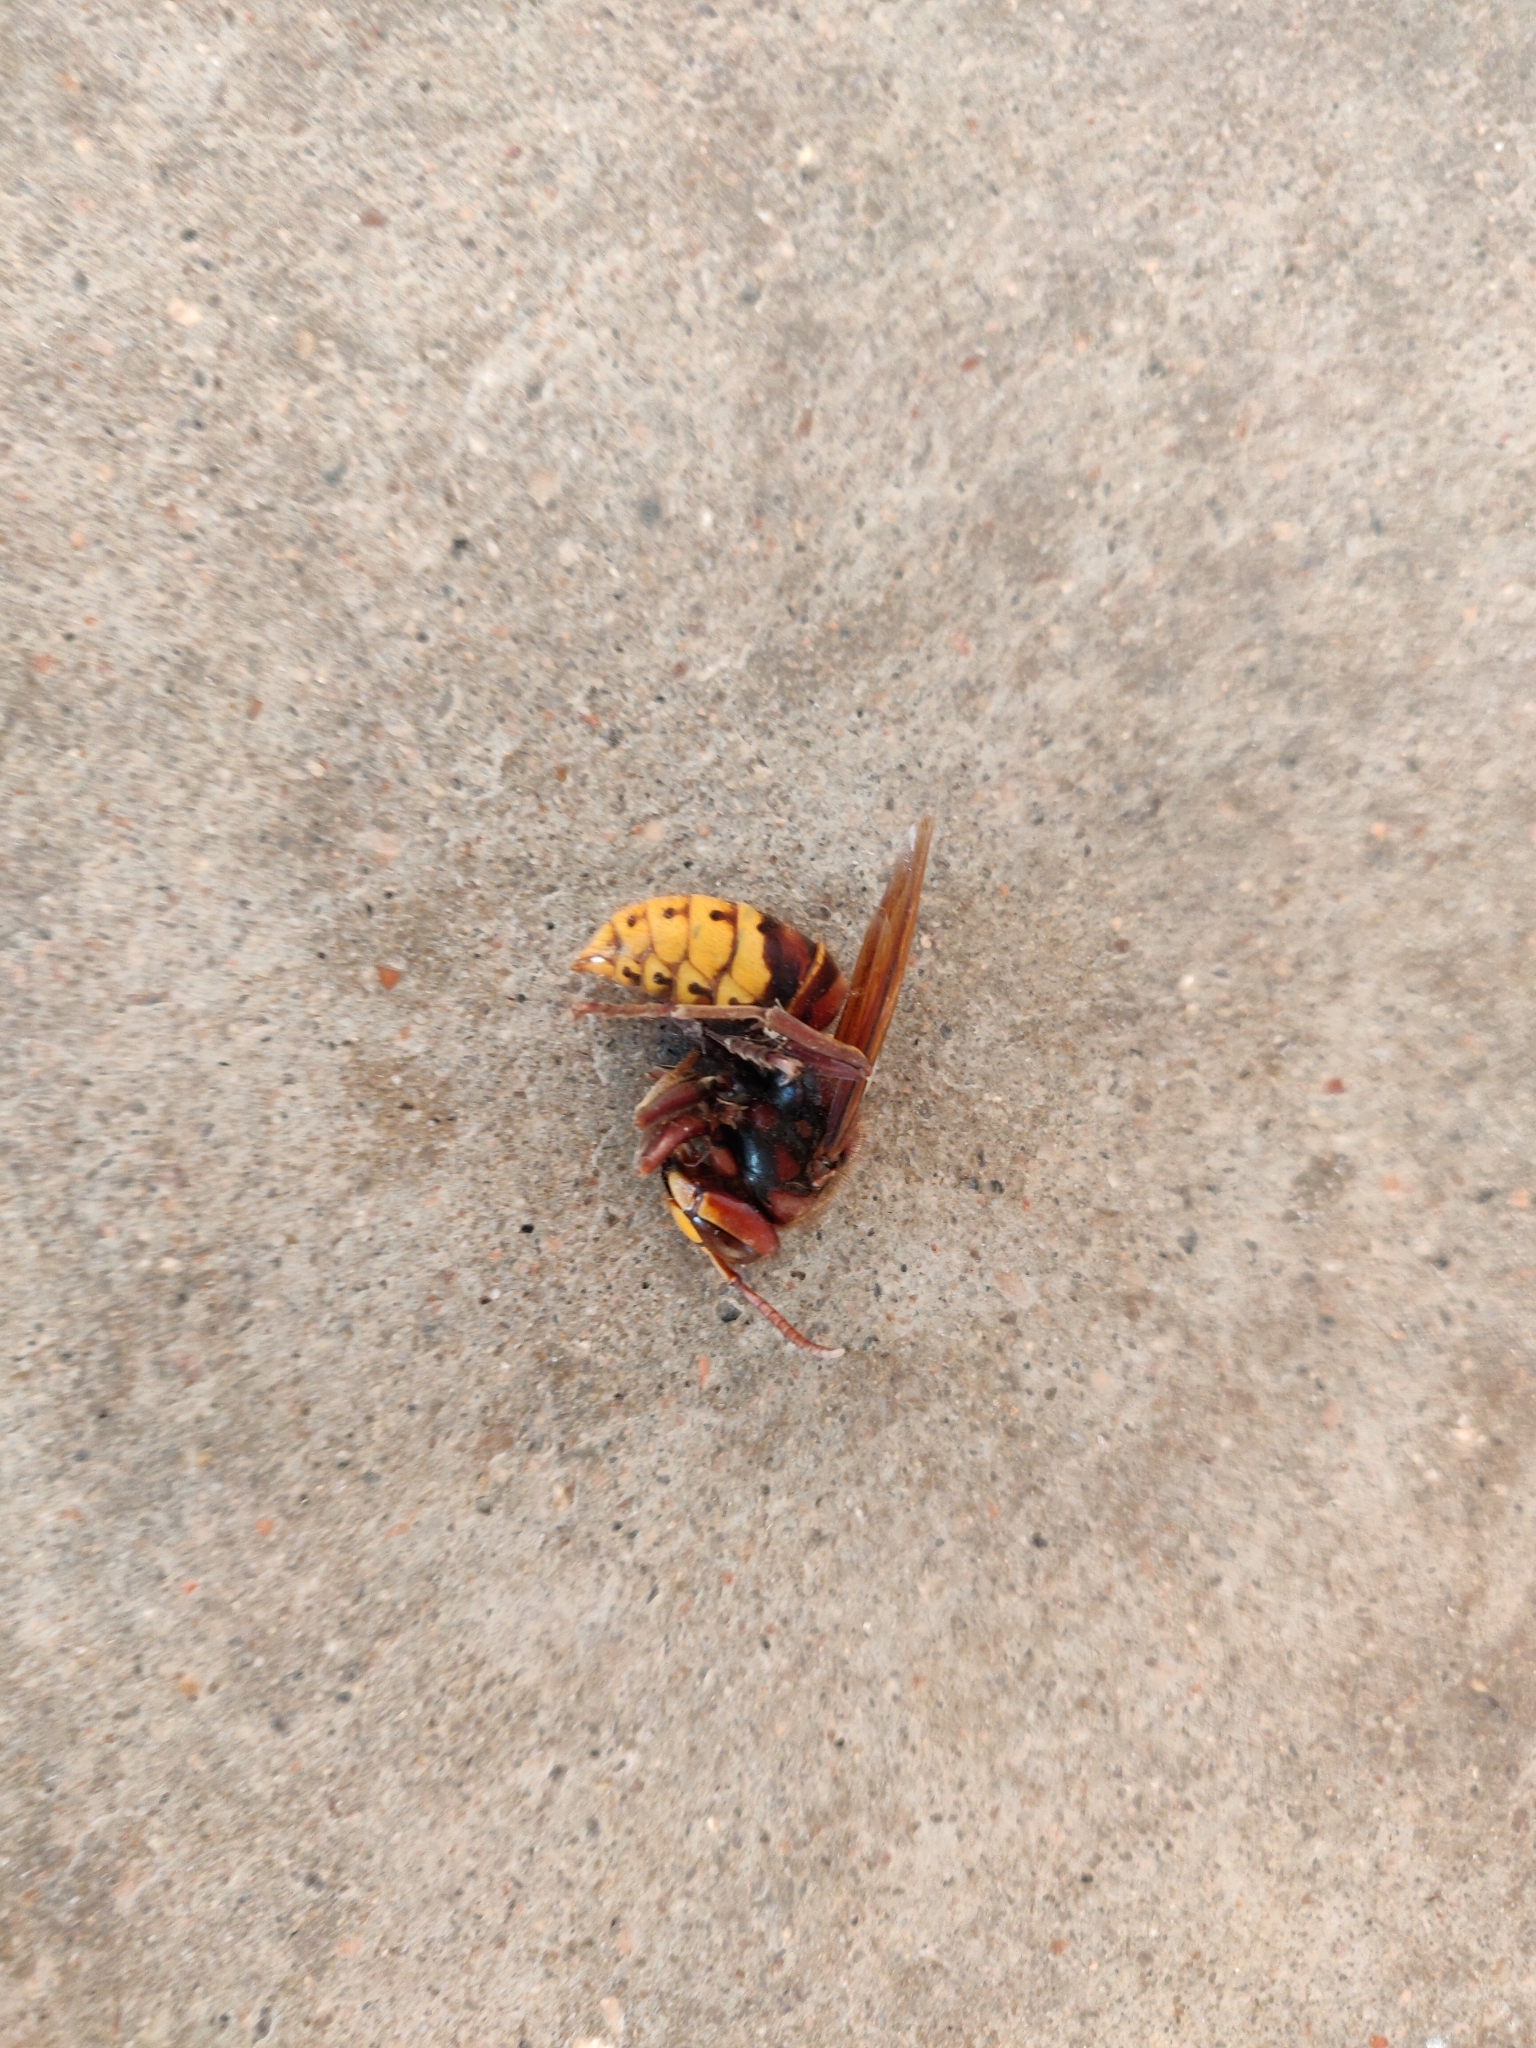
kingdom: Animalia
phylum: Arthropoda
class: Insecta
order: Hymenoptera
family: Vespidae
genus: Vespa
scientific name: Vespa crabro
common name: Hornet
